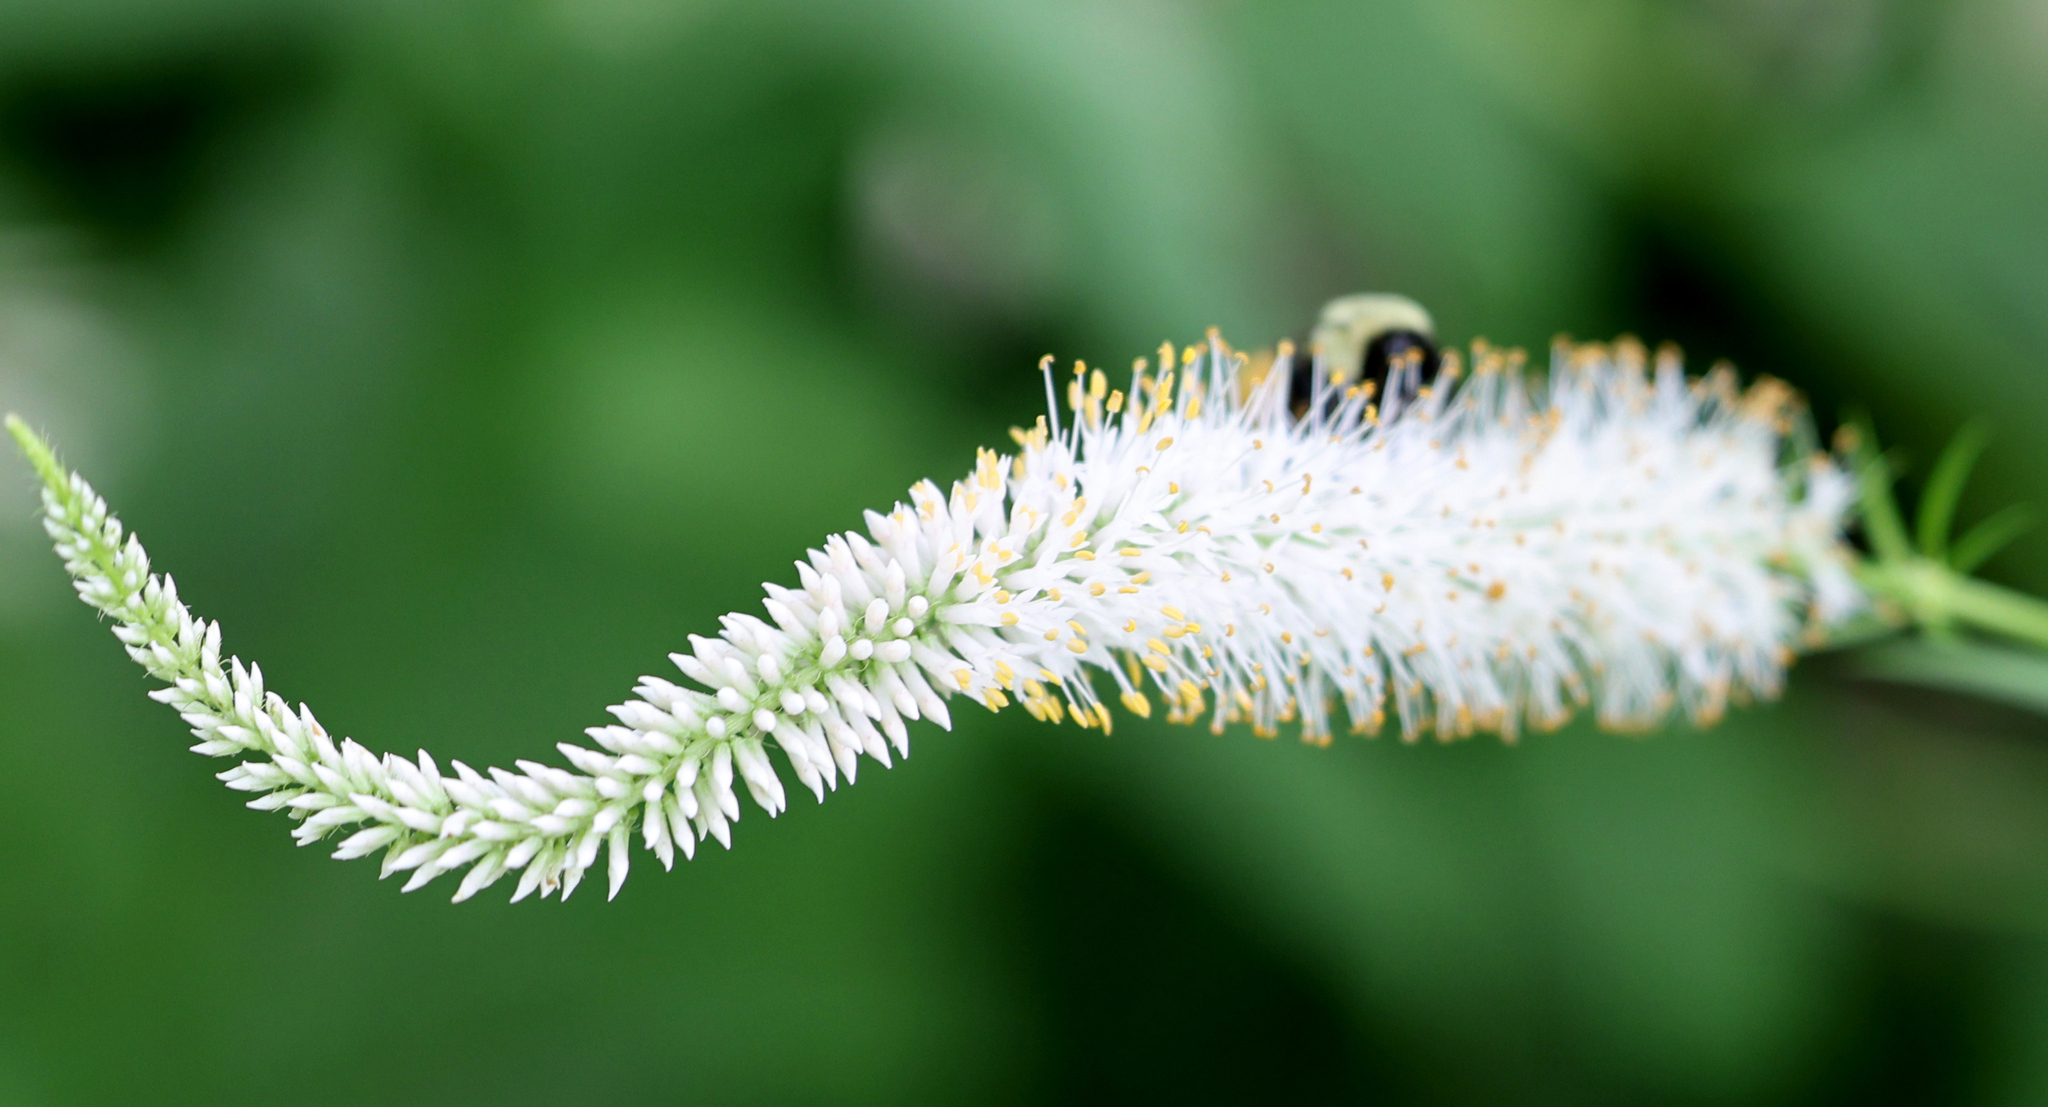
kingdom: Animalia
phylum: Arthropoda
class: Insecta
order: Hymenoptera
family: Apidae
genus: Bombus
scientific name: Bombus impatiens
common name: Common eastern bumble bee
